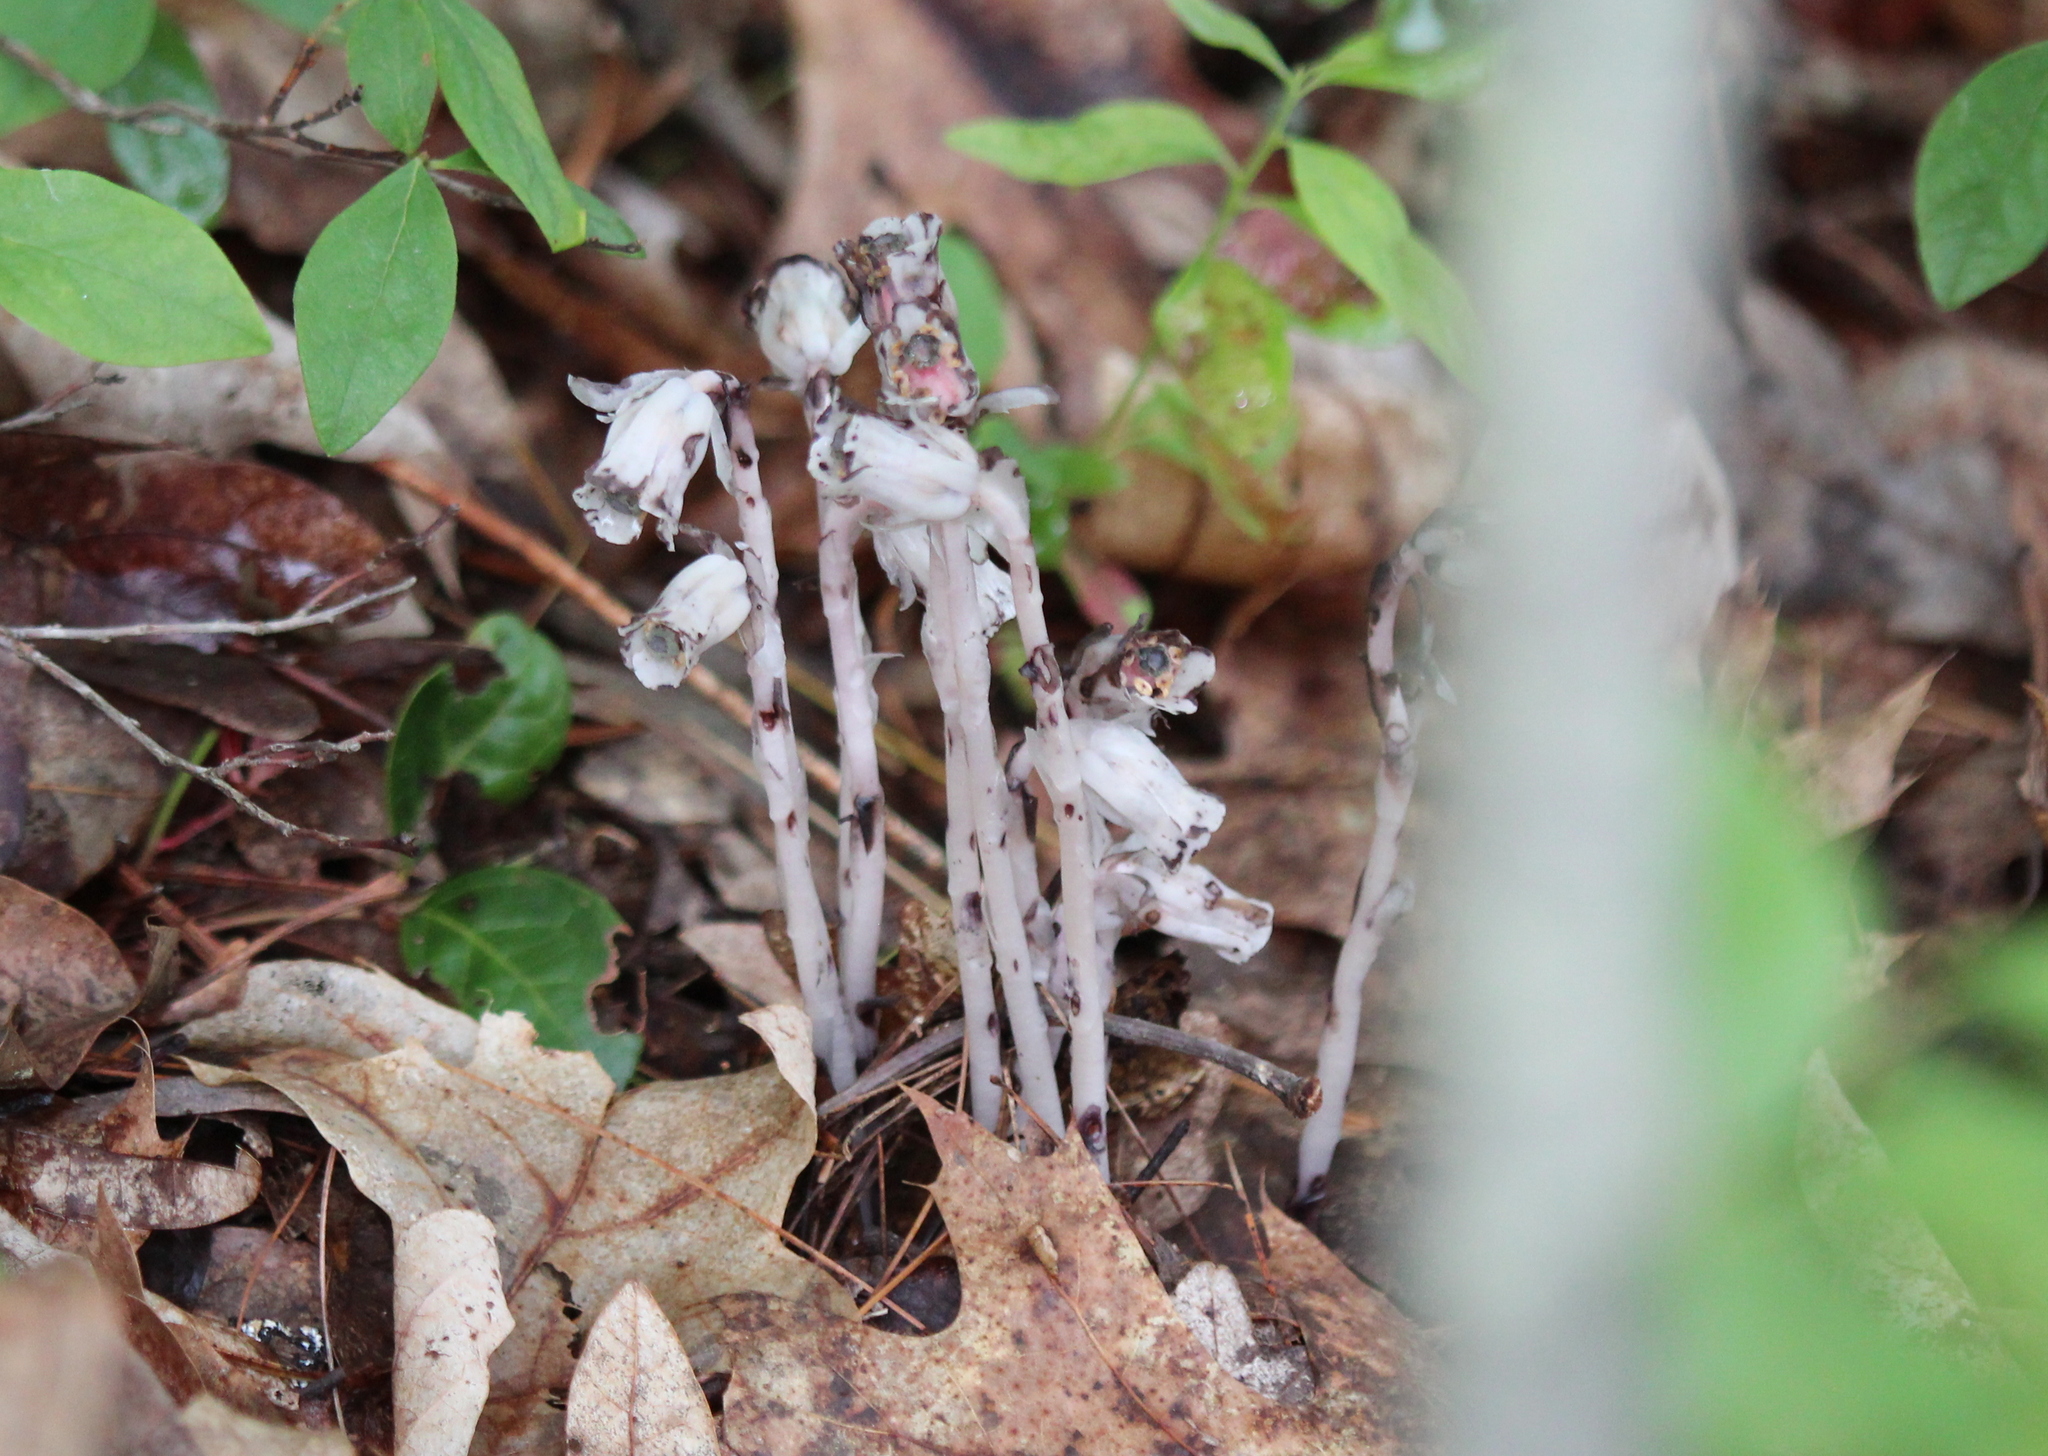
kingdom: Plantae
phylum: Tracheophyta
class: Magnoliopsida
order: Ericales
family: Ericaceae
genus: Monotropa
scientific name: Monotropa uniflora
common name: Convulsion root
